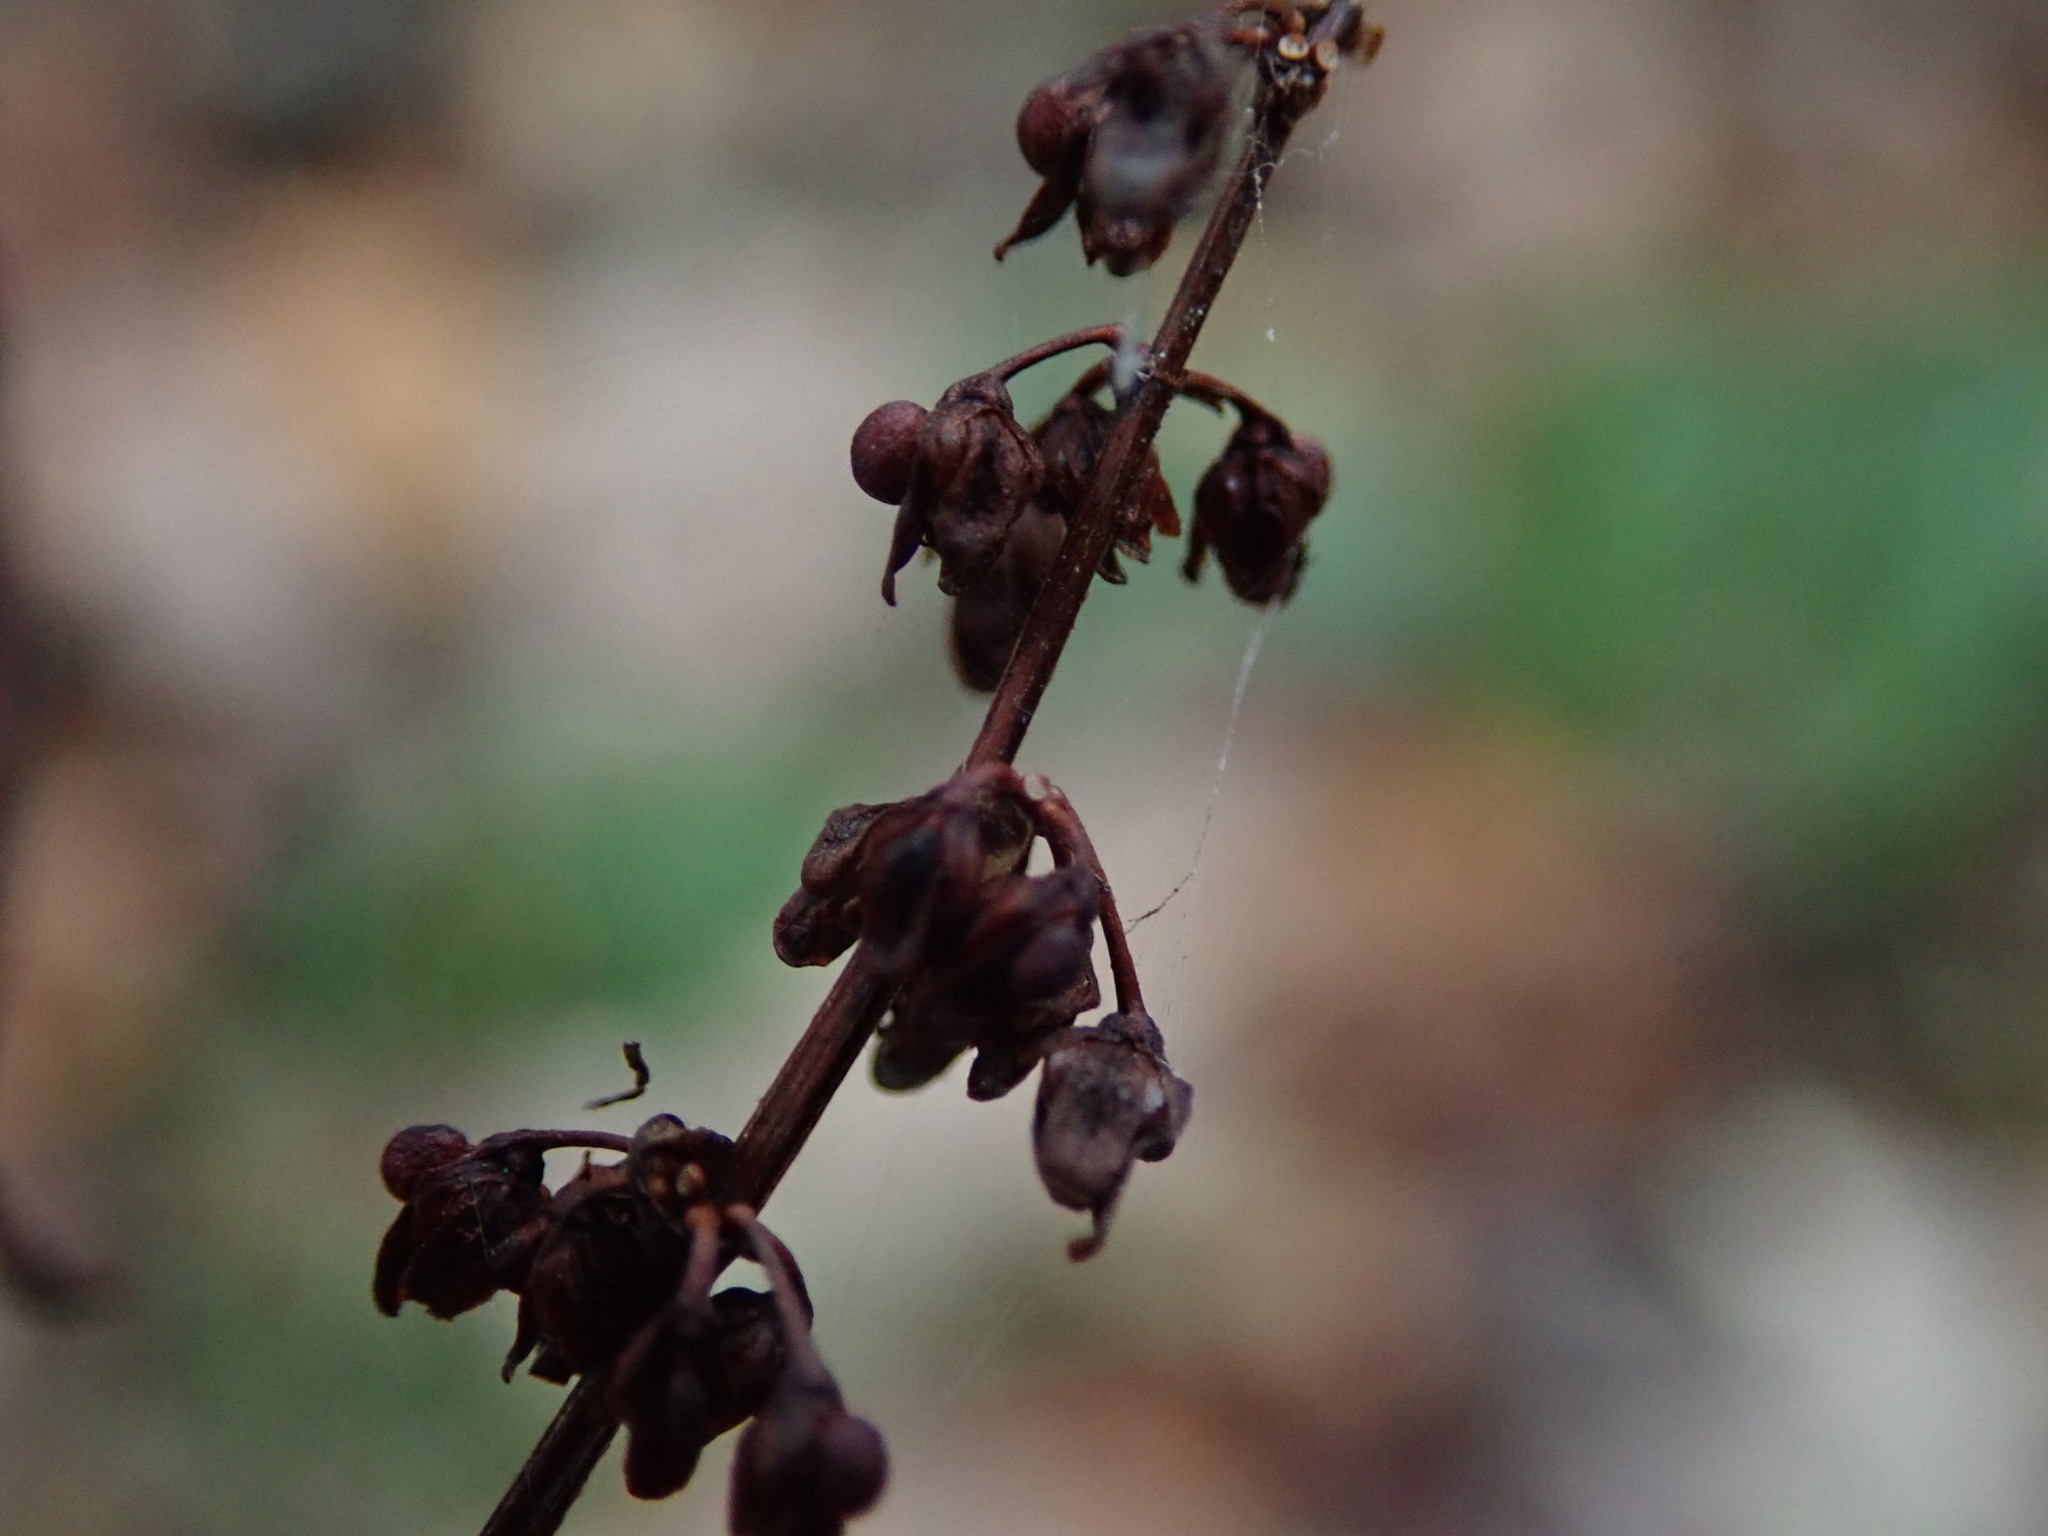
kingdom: Plantae
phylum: Tracheophyta
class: Magnoliopsida
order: Caryophyllales
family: Polygonaceae
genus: Rumex
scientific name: Rumex sanguineus
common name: Wood dock
